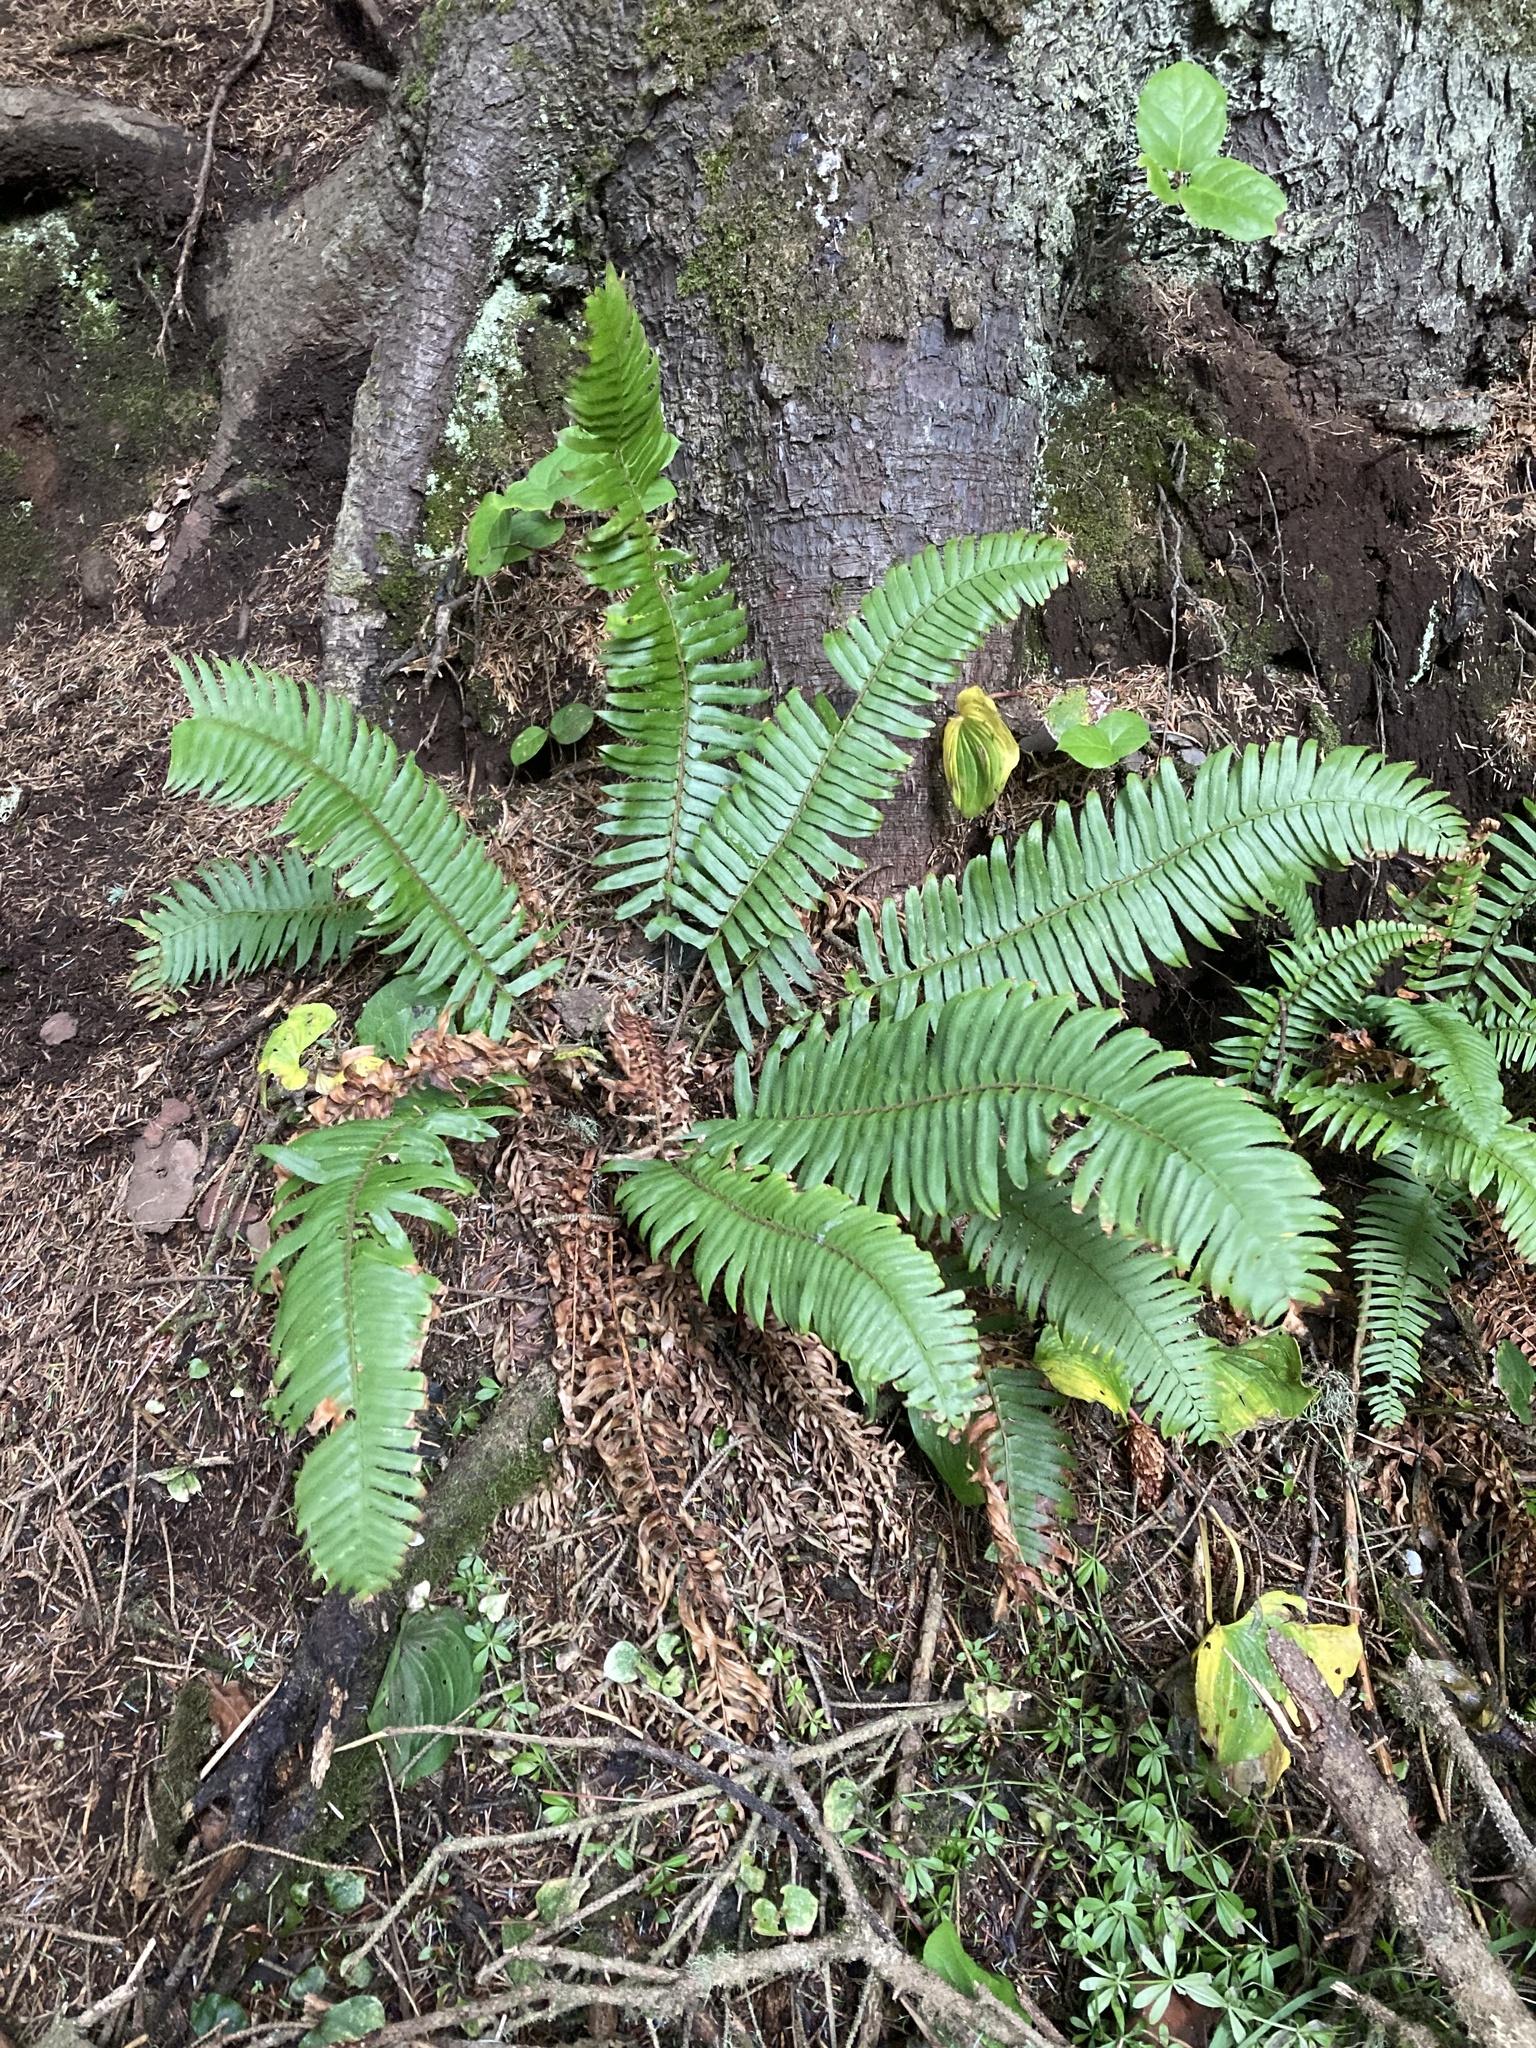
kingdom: Plantae
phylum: Tracheophyta
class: Polypodiopsida
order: Polypodiales
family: Dryopteridaceae
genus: Polystichum
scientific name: Polystichum munitum
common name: Western sword-fern
